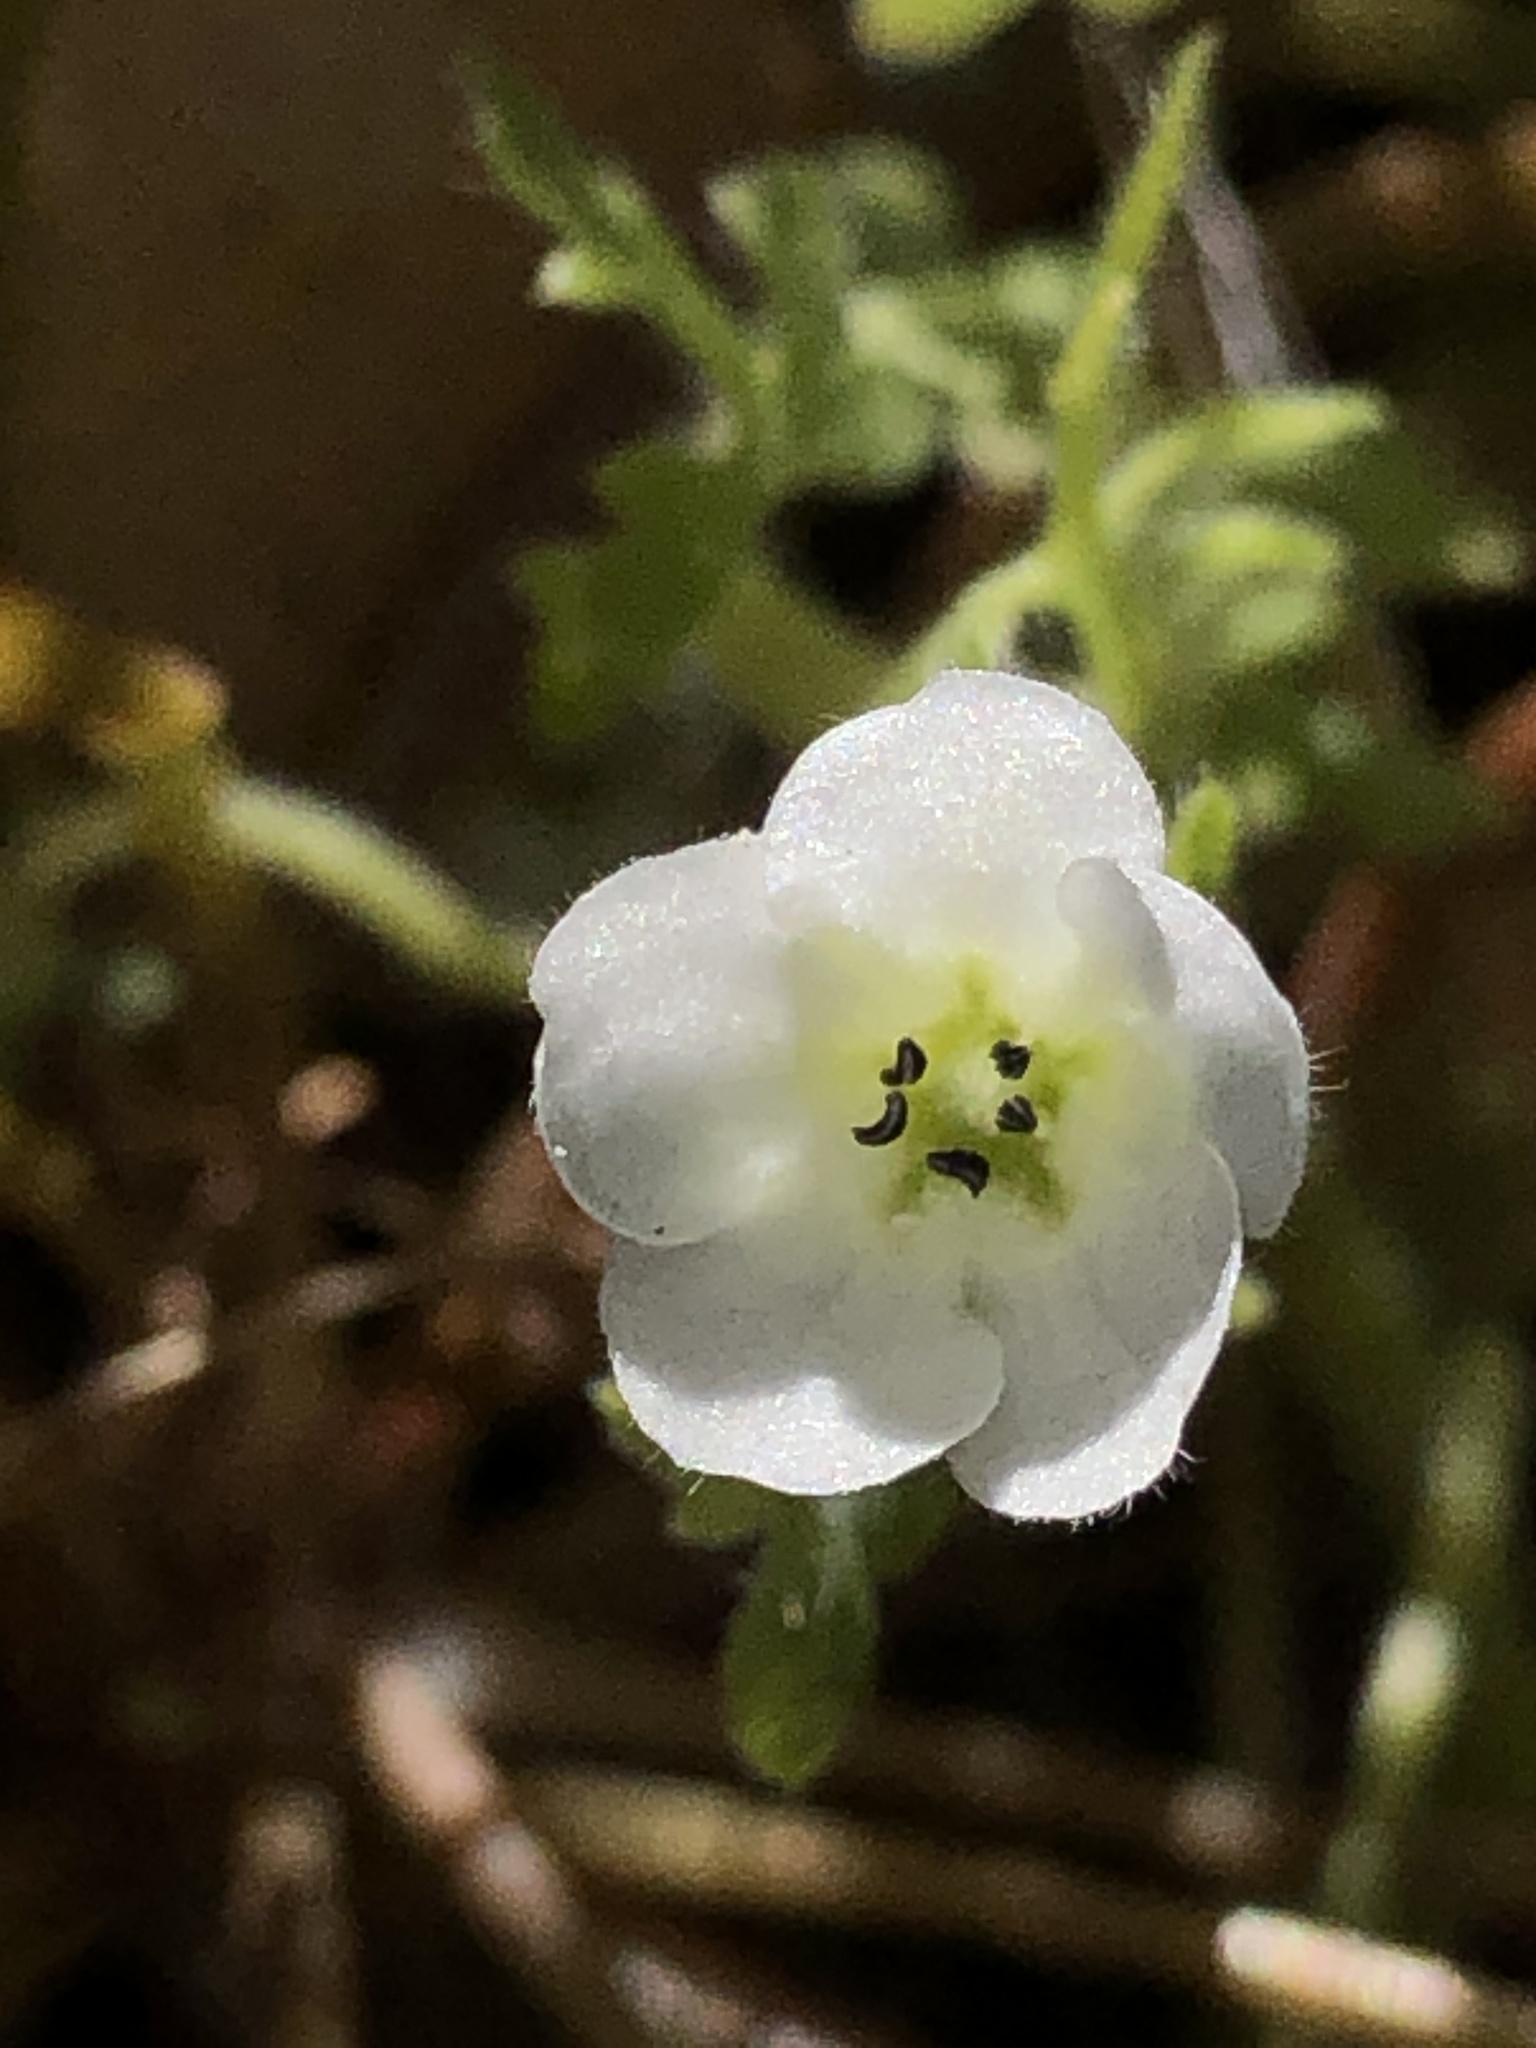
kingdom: Plantae
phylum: Tracheophyta
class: Magnoliopsida
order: Boraginales
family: Hydrophyllaceae
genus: Nemophila
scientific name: Nemophila heterophylla
